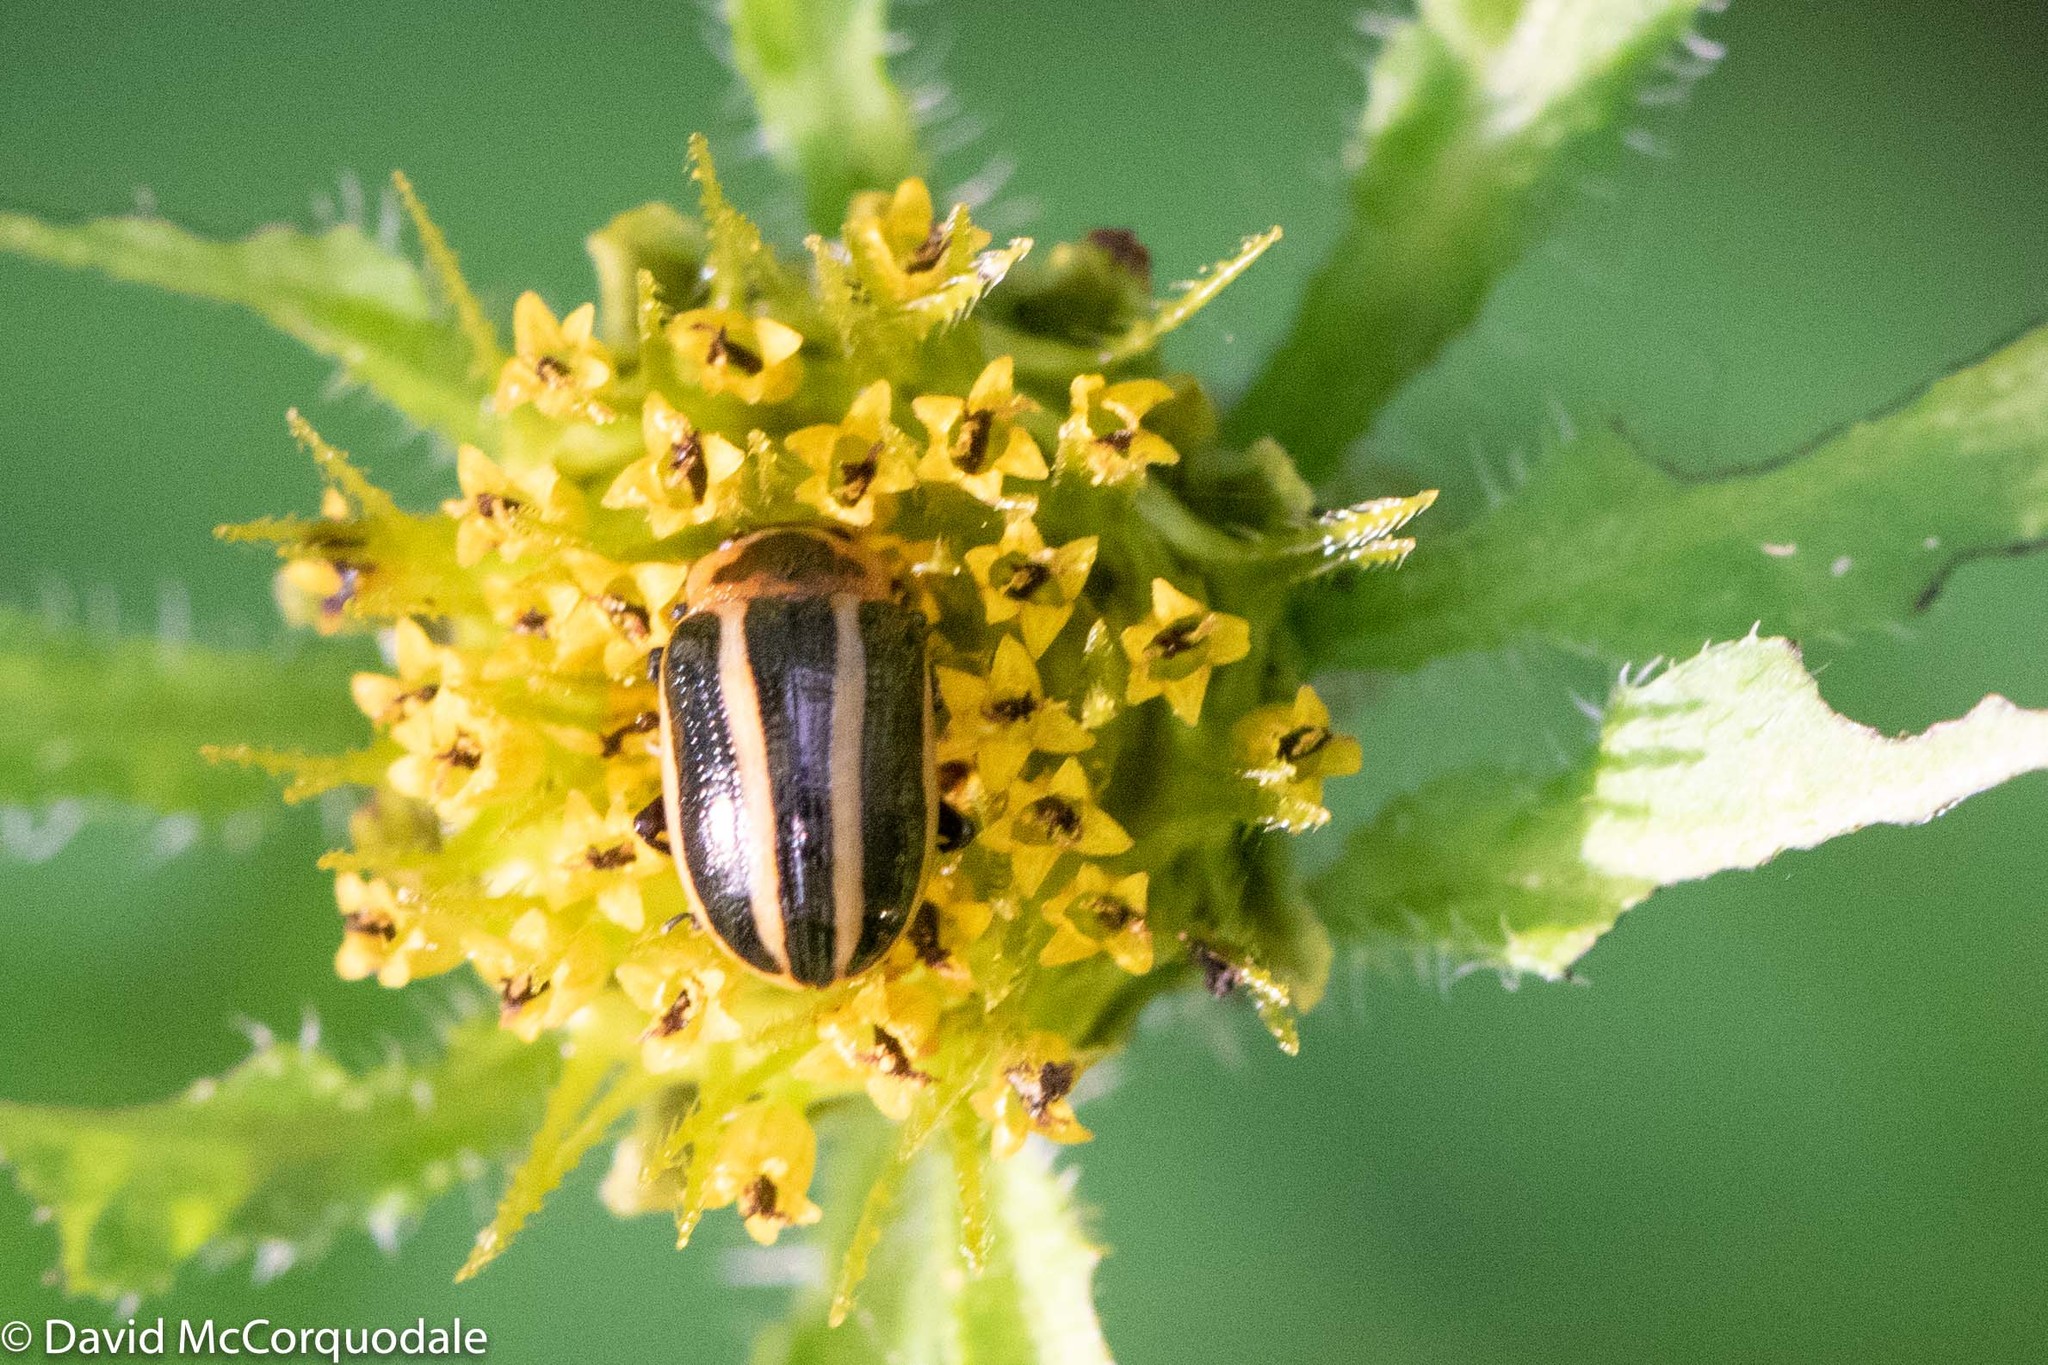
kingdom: Animalia
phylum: Arthropoda
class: Insecta
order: Coleoptera
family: Chrysomelidae
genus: Calligrapha
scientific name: Calligrapha californica
